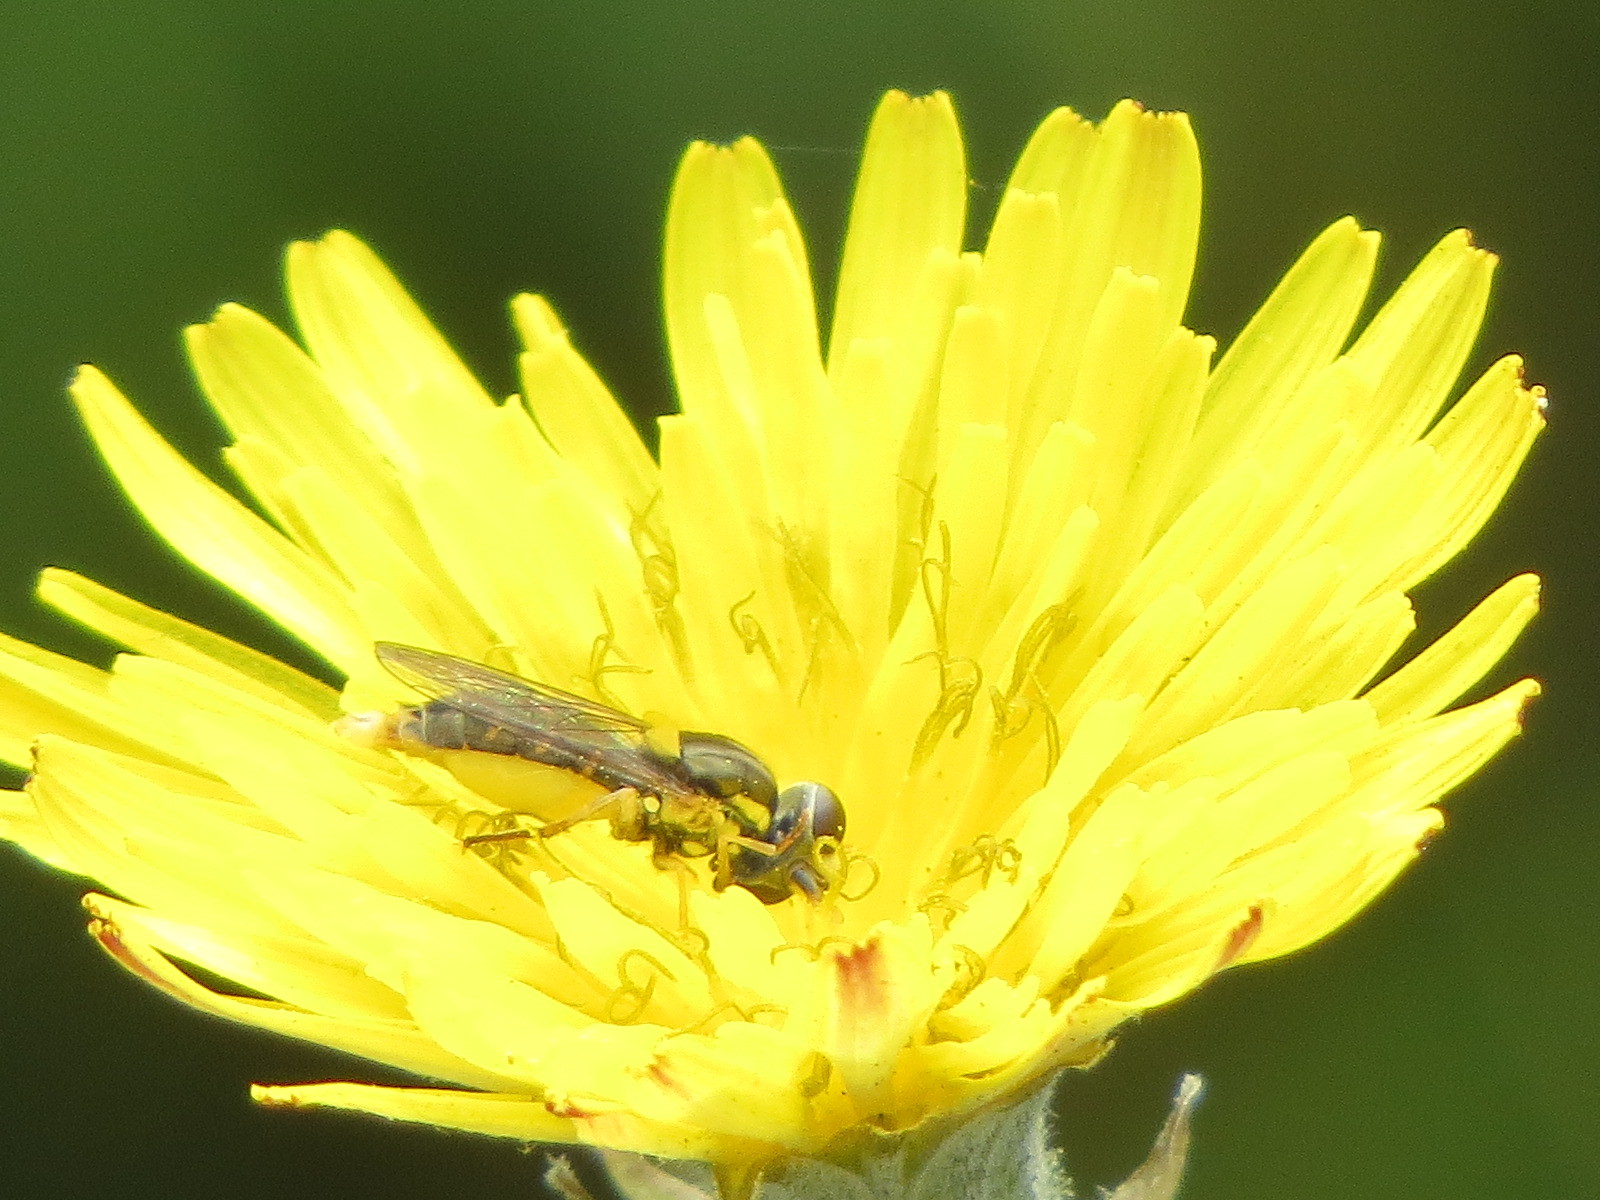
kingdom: Animalia
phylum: Arthropoda
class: Insecta
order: Diptera
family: Syrphidae
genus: Sphaerophoria
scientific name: Sphaerophoria sulphuripes
